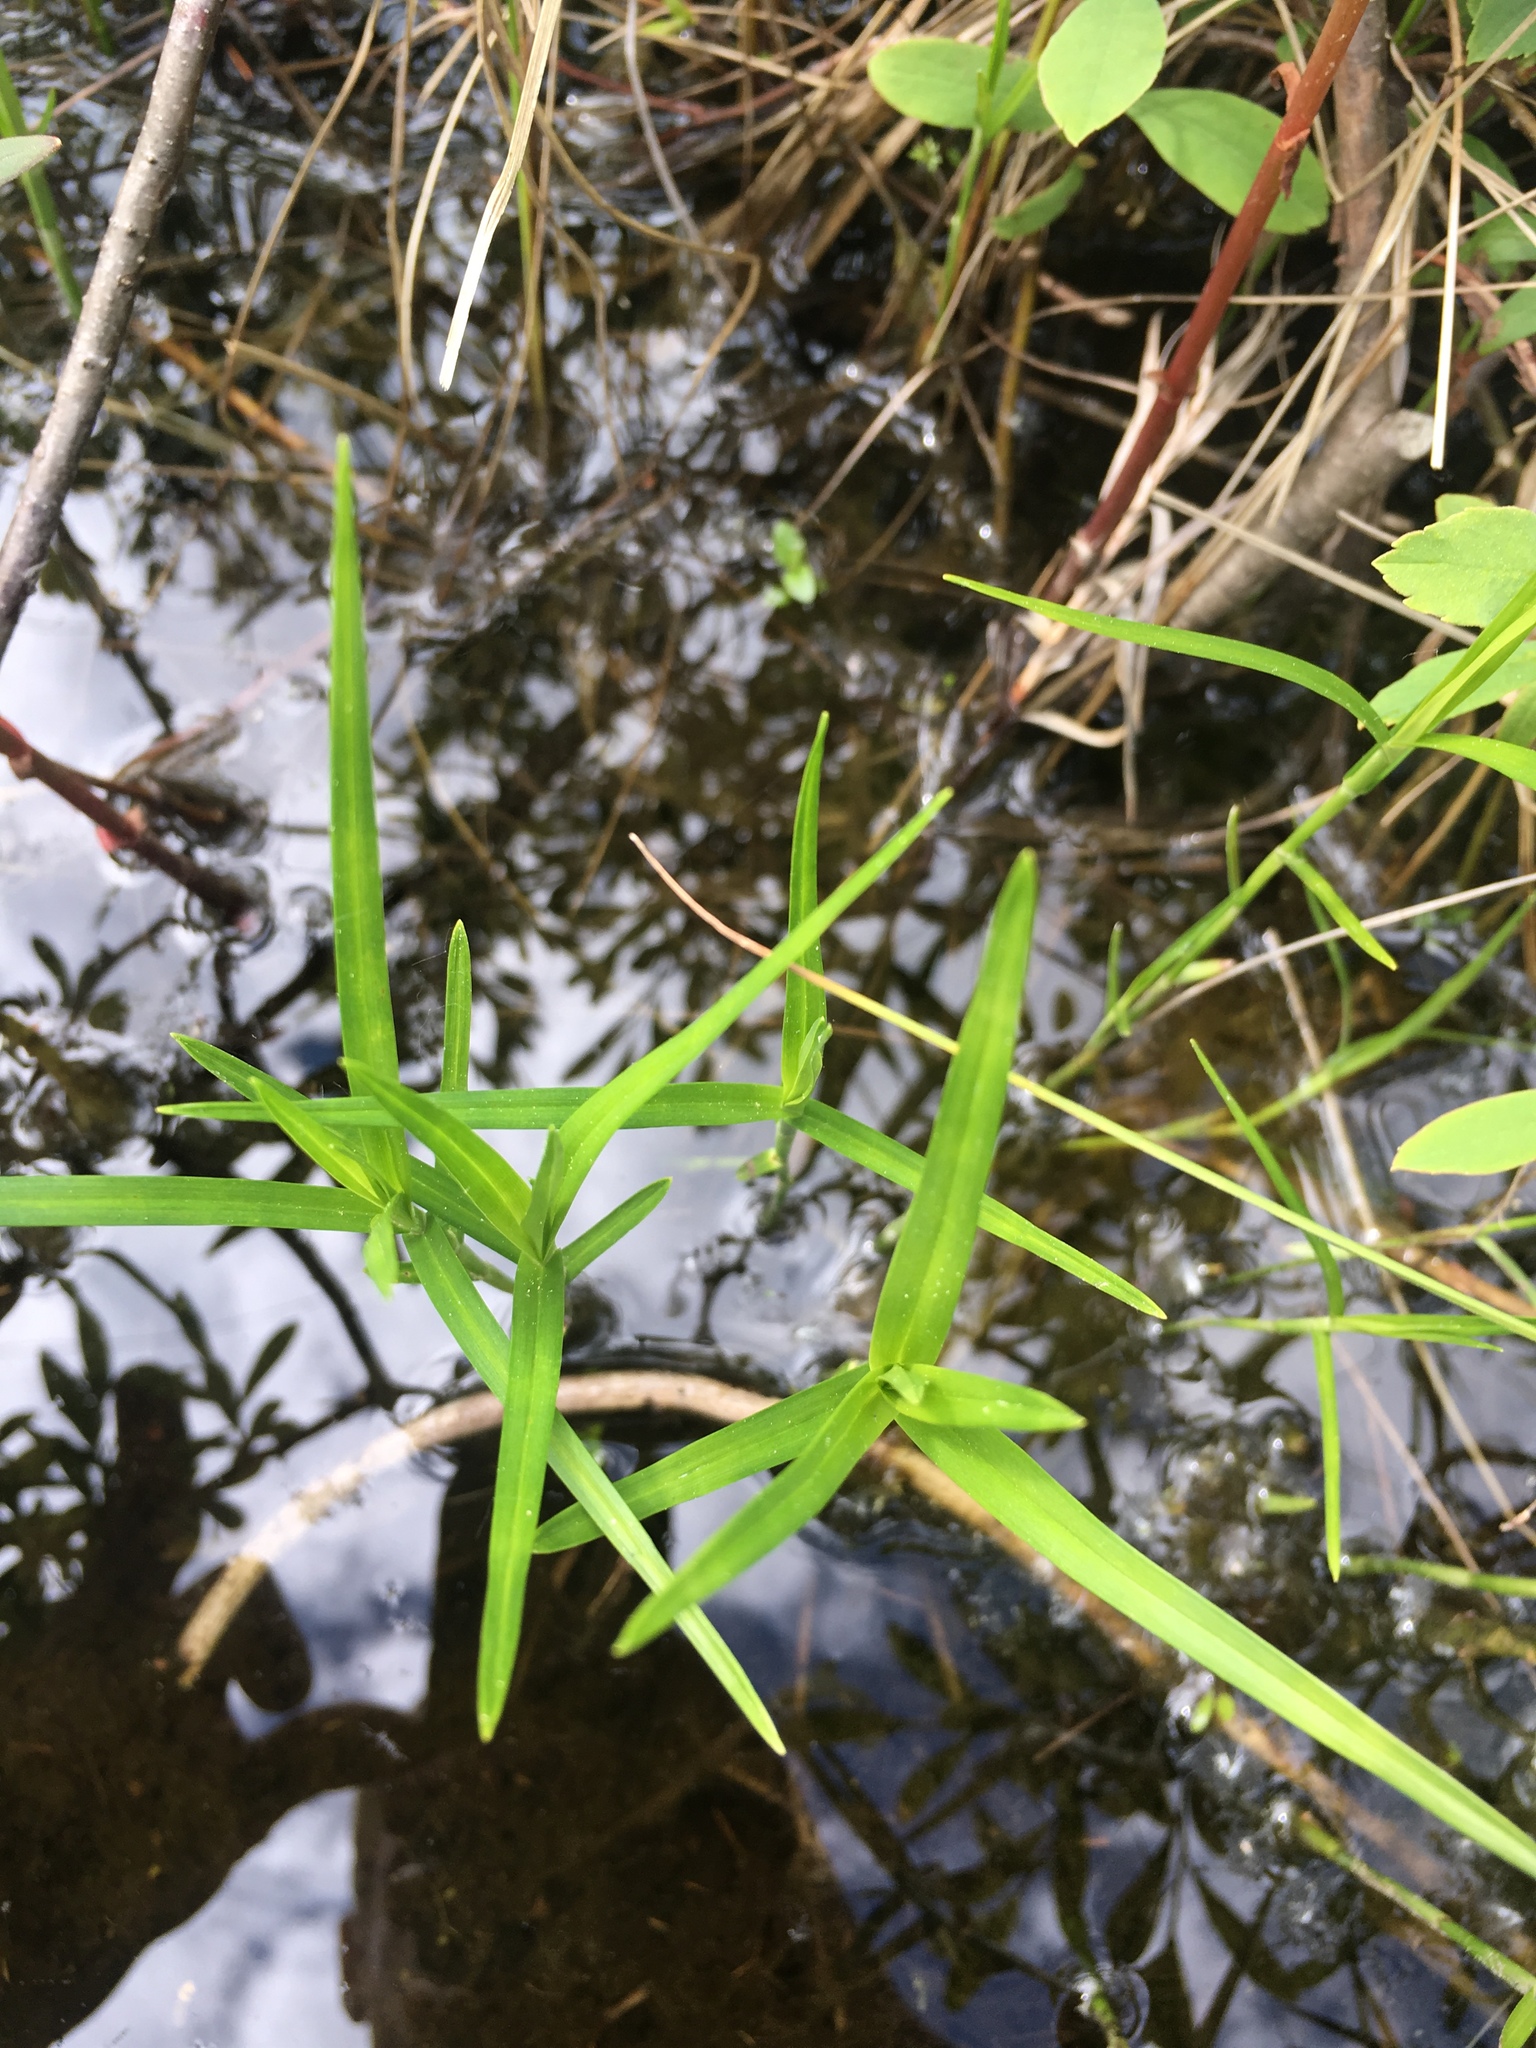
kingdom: Plantae
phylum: Tracheophyta
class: Liliopsida
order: Poales
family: Cyperaceae
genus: Dulichium
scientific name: Dulichium arundinaceum
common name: Three-way sedge
